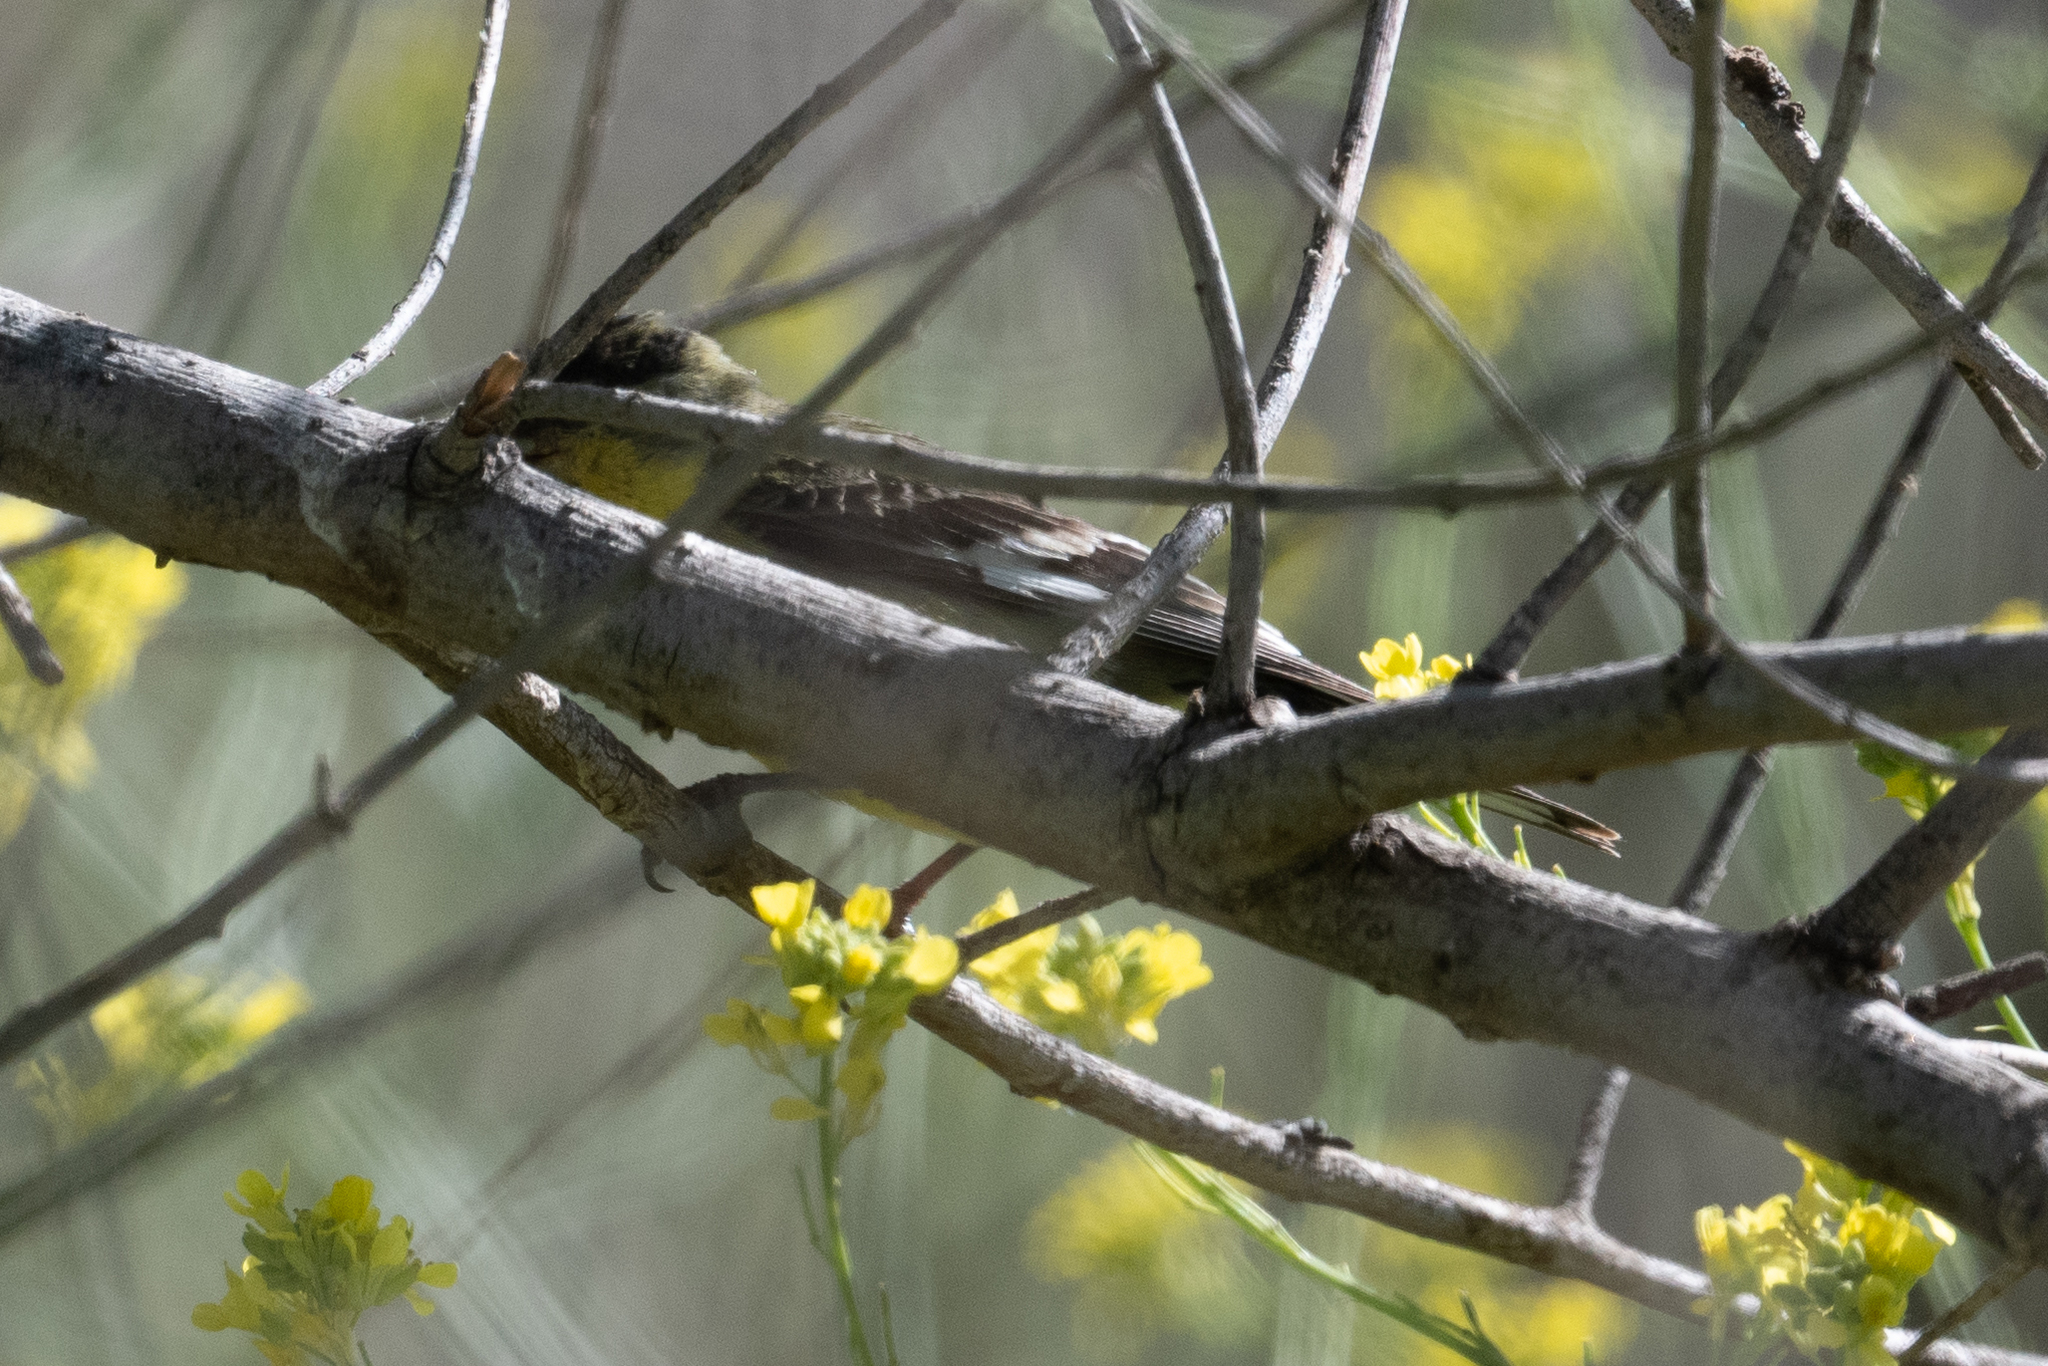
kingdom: Animalia
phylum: Chordata
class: Aves
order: Passeriformes
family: Fringillidae
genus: Spinus
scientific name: Spinus psaltria
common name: Lesser goldfinch
